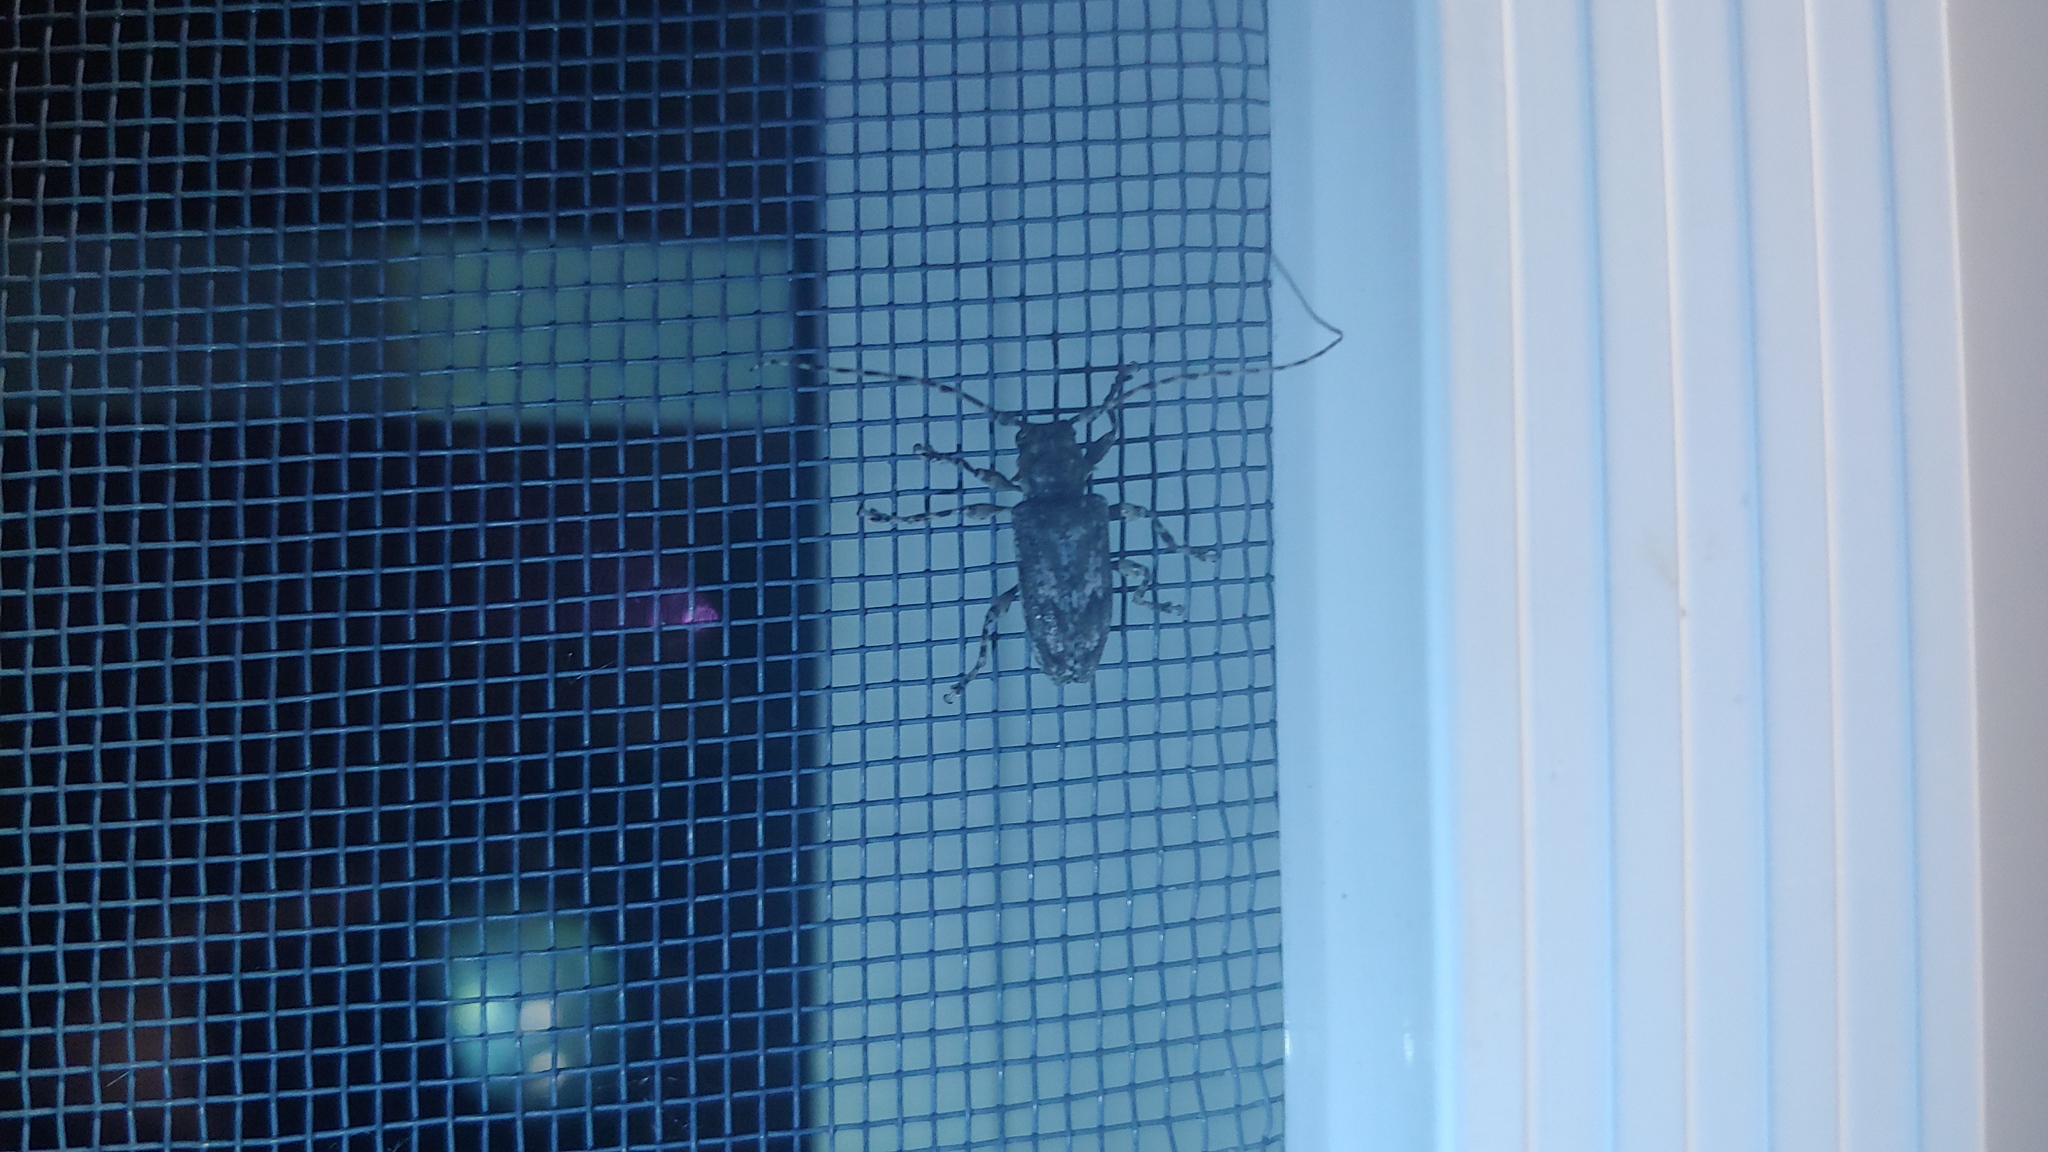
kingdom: Animalia
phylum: Arthropoda
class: Insecta
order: Coleoptera
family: Cerambycidae
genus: Aegomorphus
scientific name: Aegomorphus modestus
